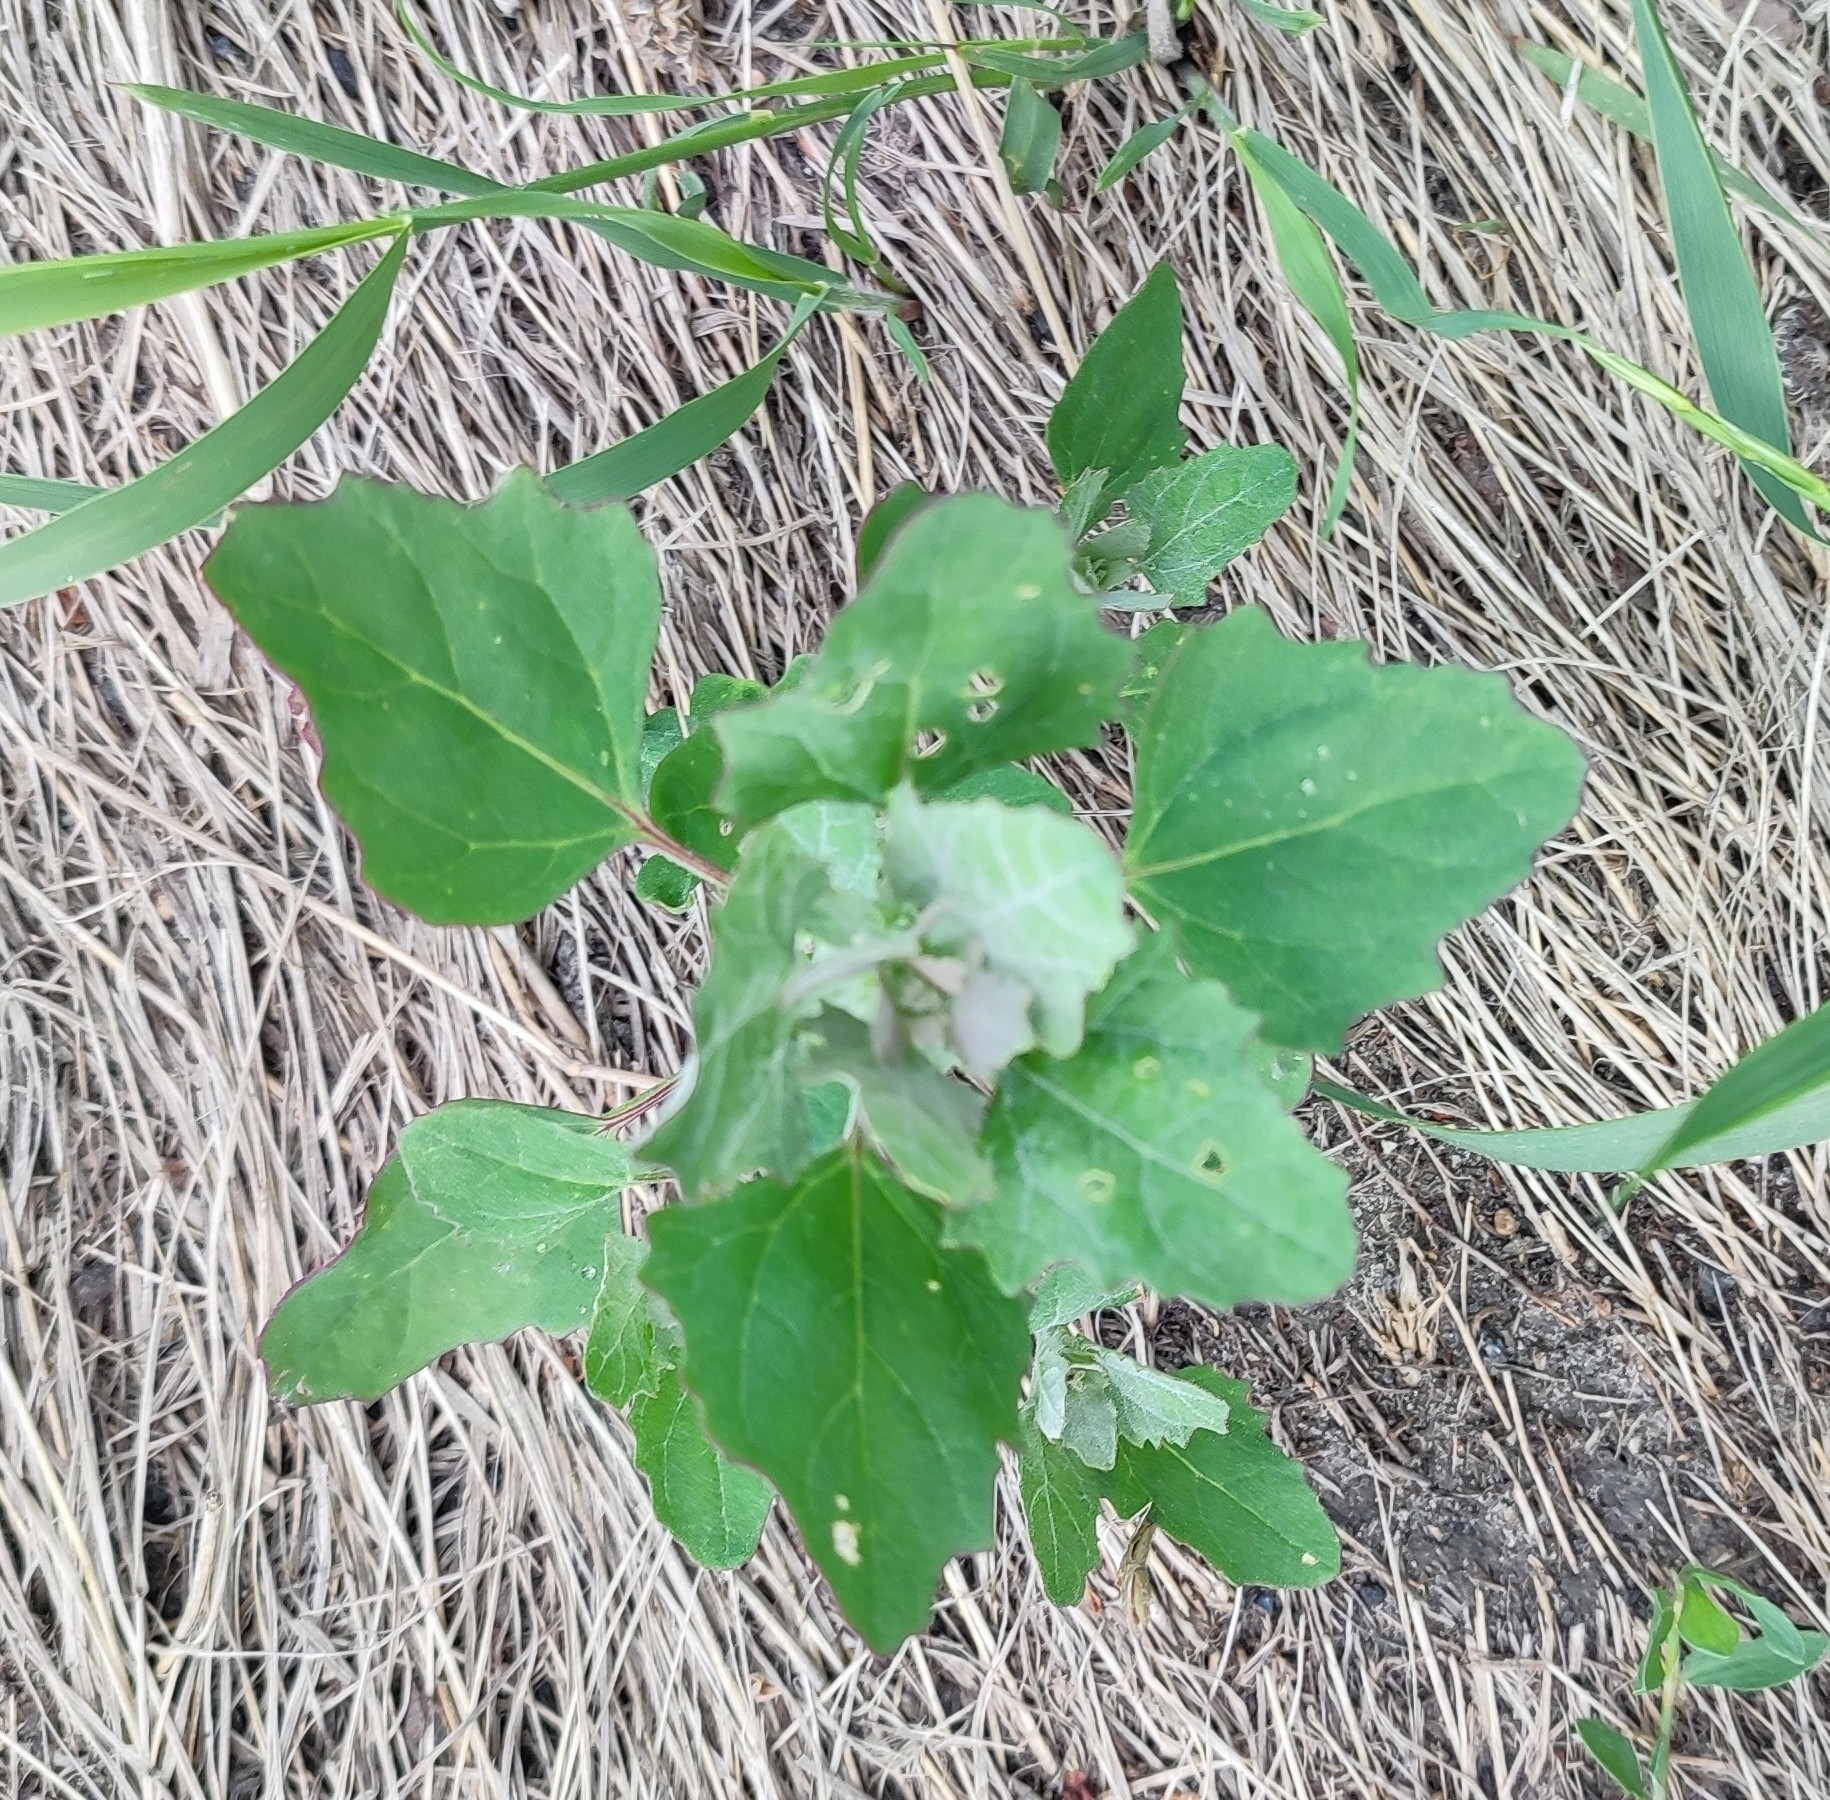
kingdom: Plantae
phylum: Tracheophyta
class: Magnoliopsida
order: Caryophyllales
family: Amaranthaceae
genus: Chenopodium
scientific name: Chenopodium album
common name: Fat-hen
